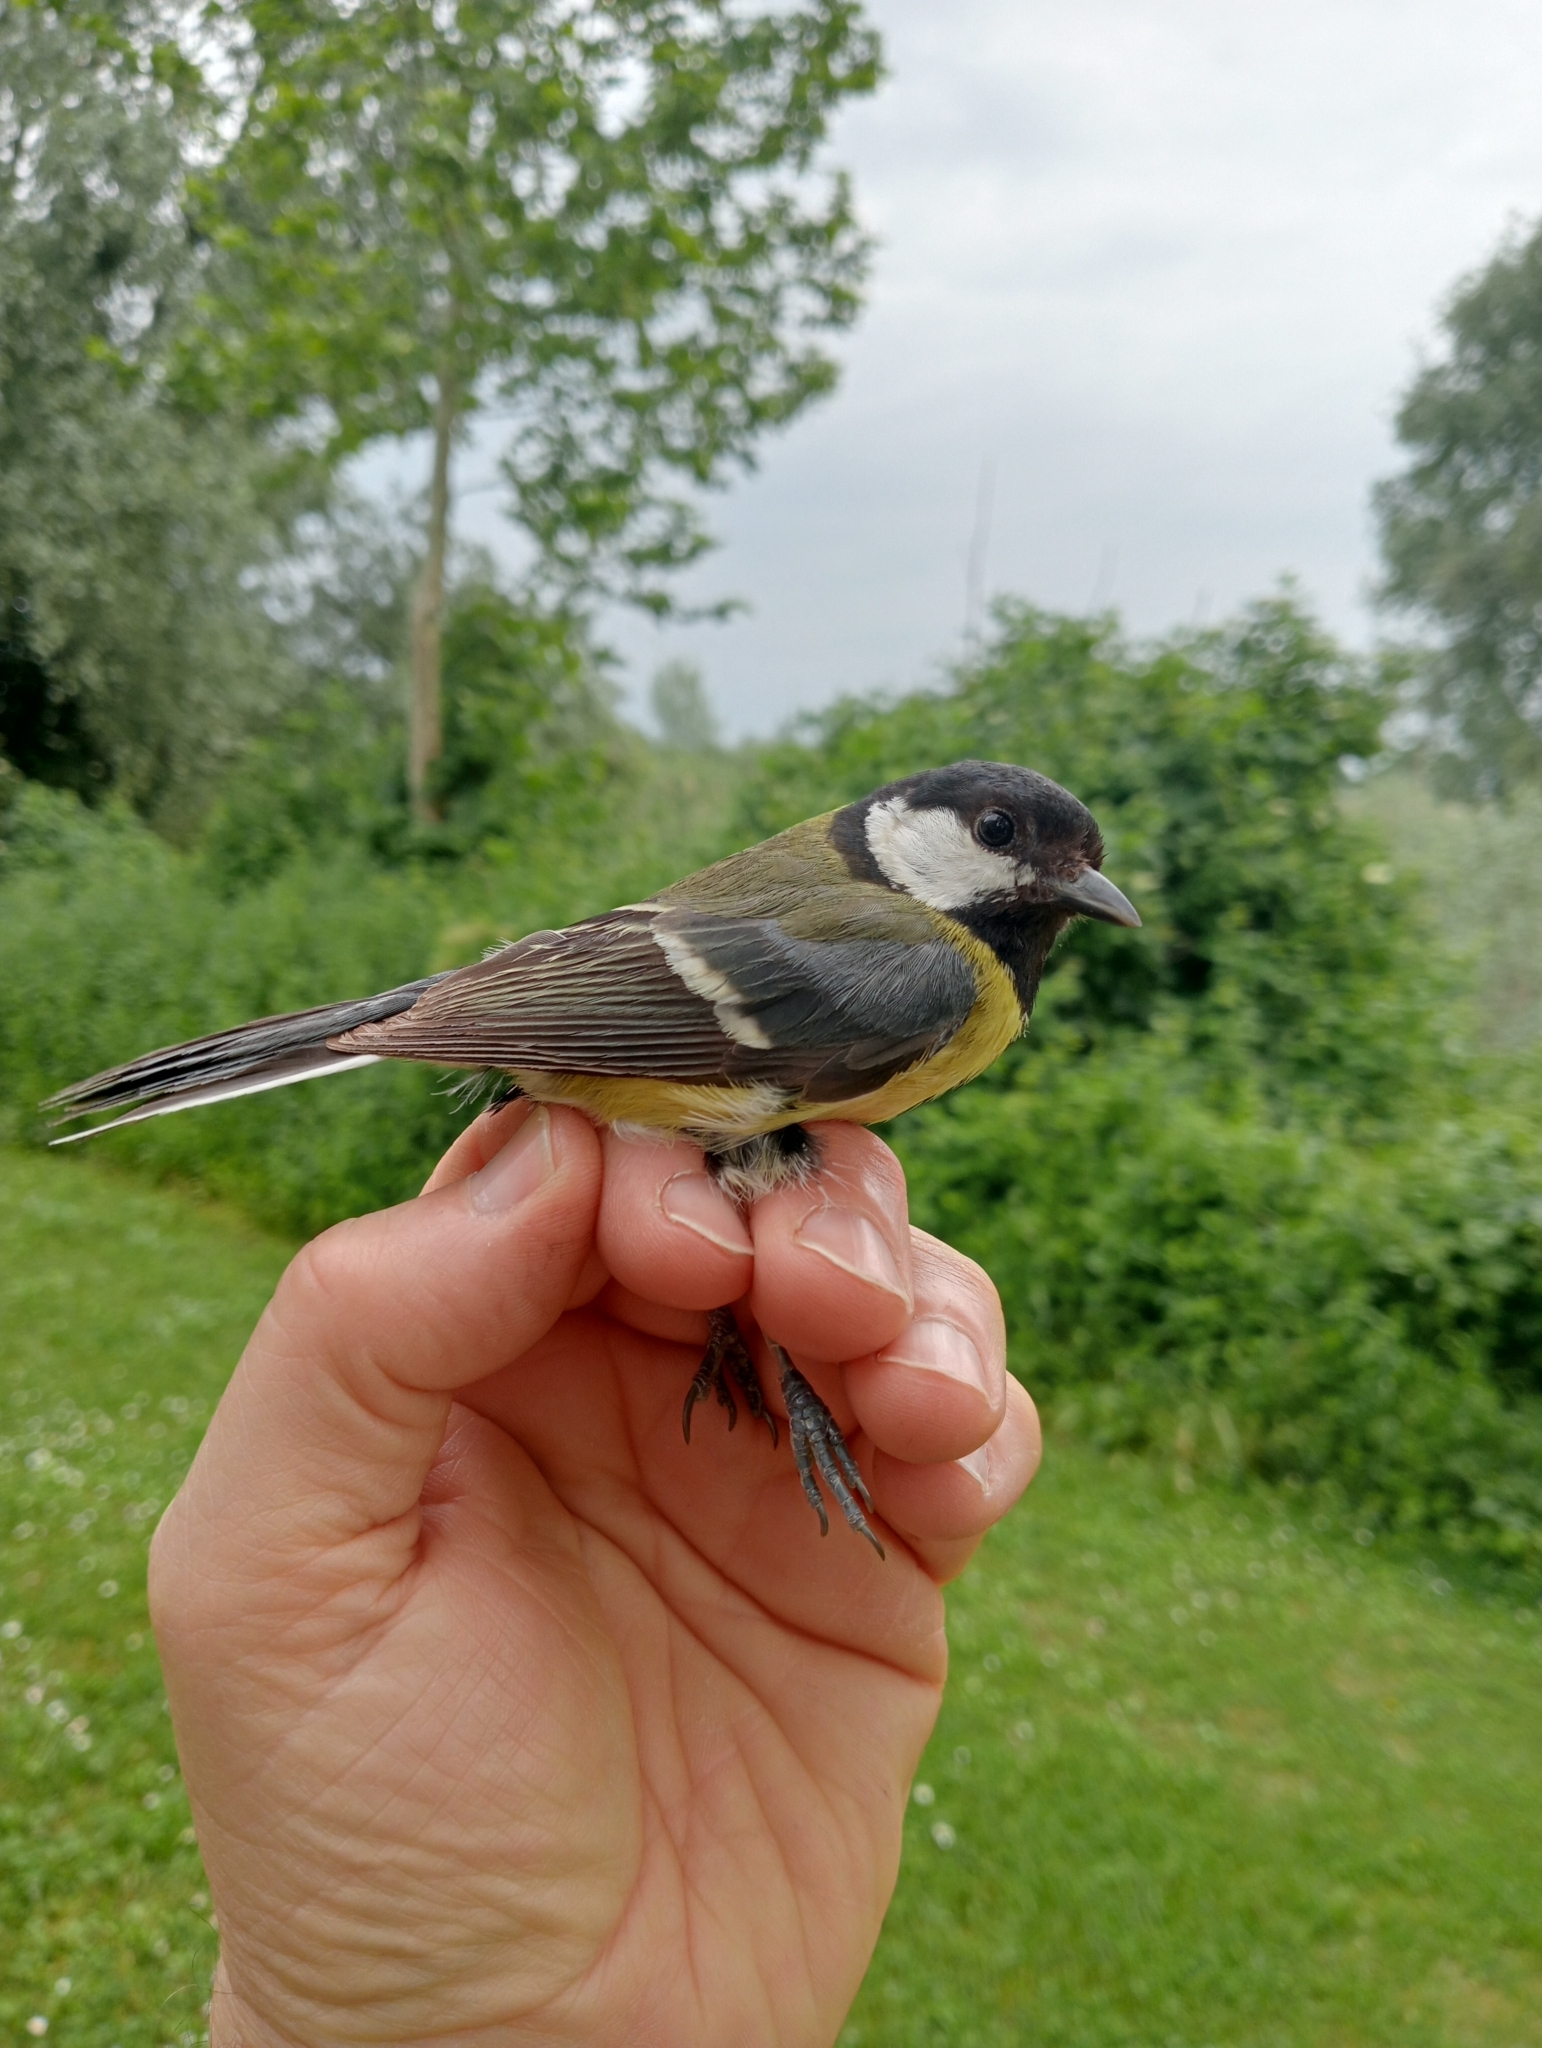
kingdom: Animalia
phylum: Chordata
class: Aves
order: Passeriformes
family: Paridae
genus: Parus
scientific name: Parus major
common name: Great tit
